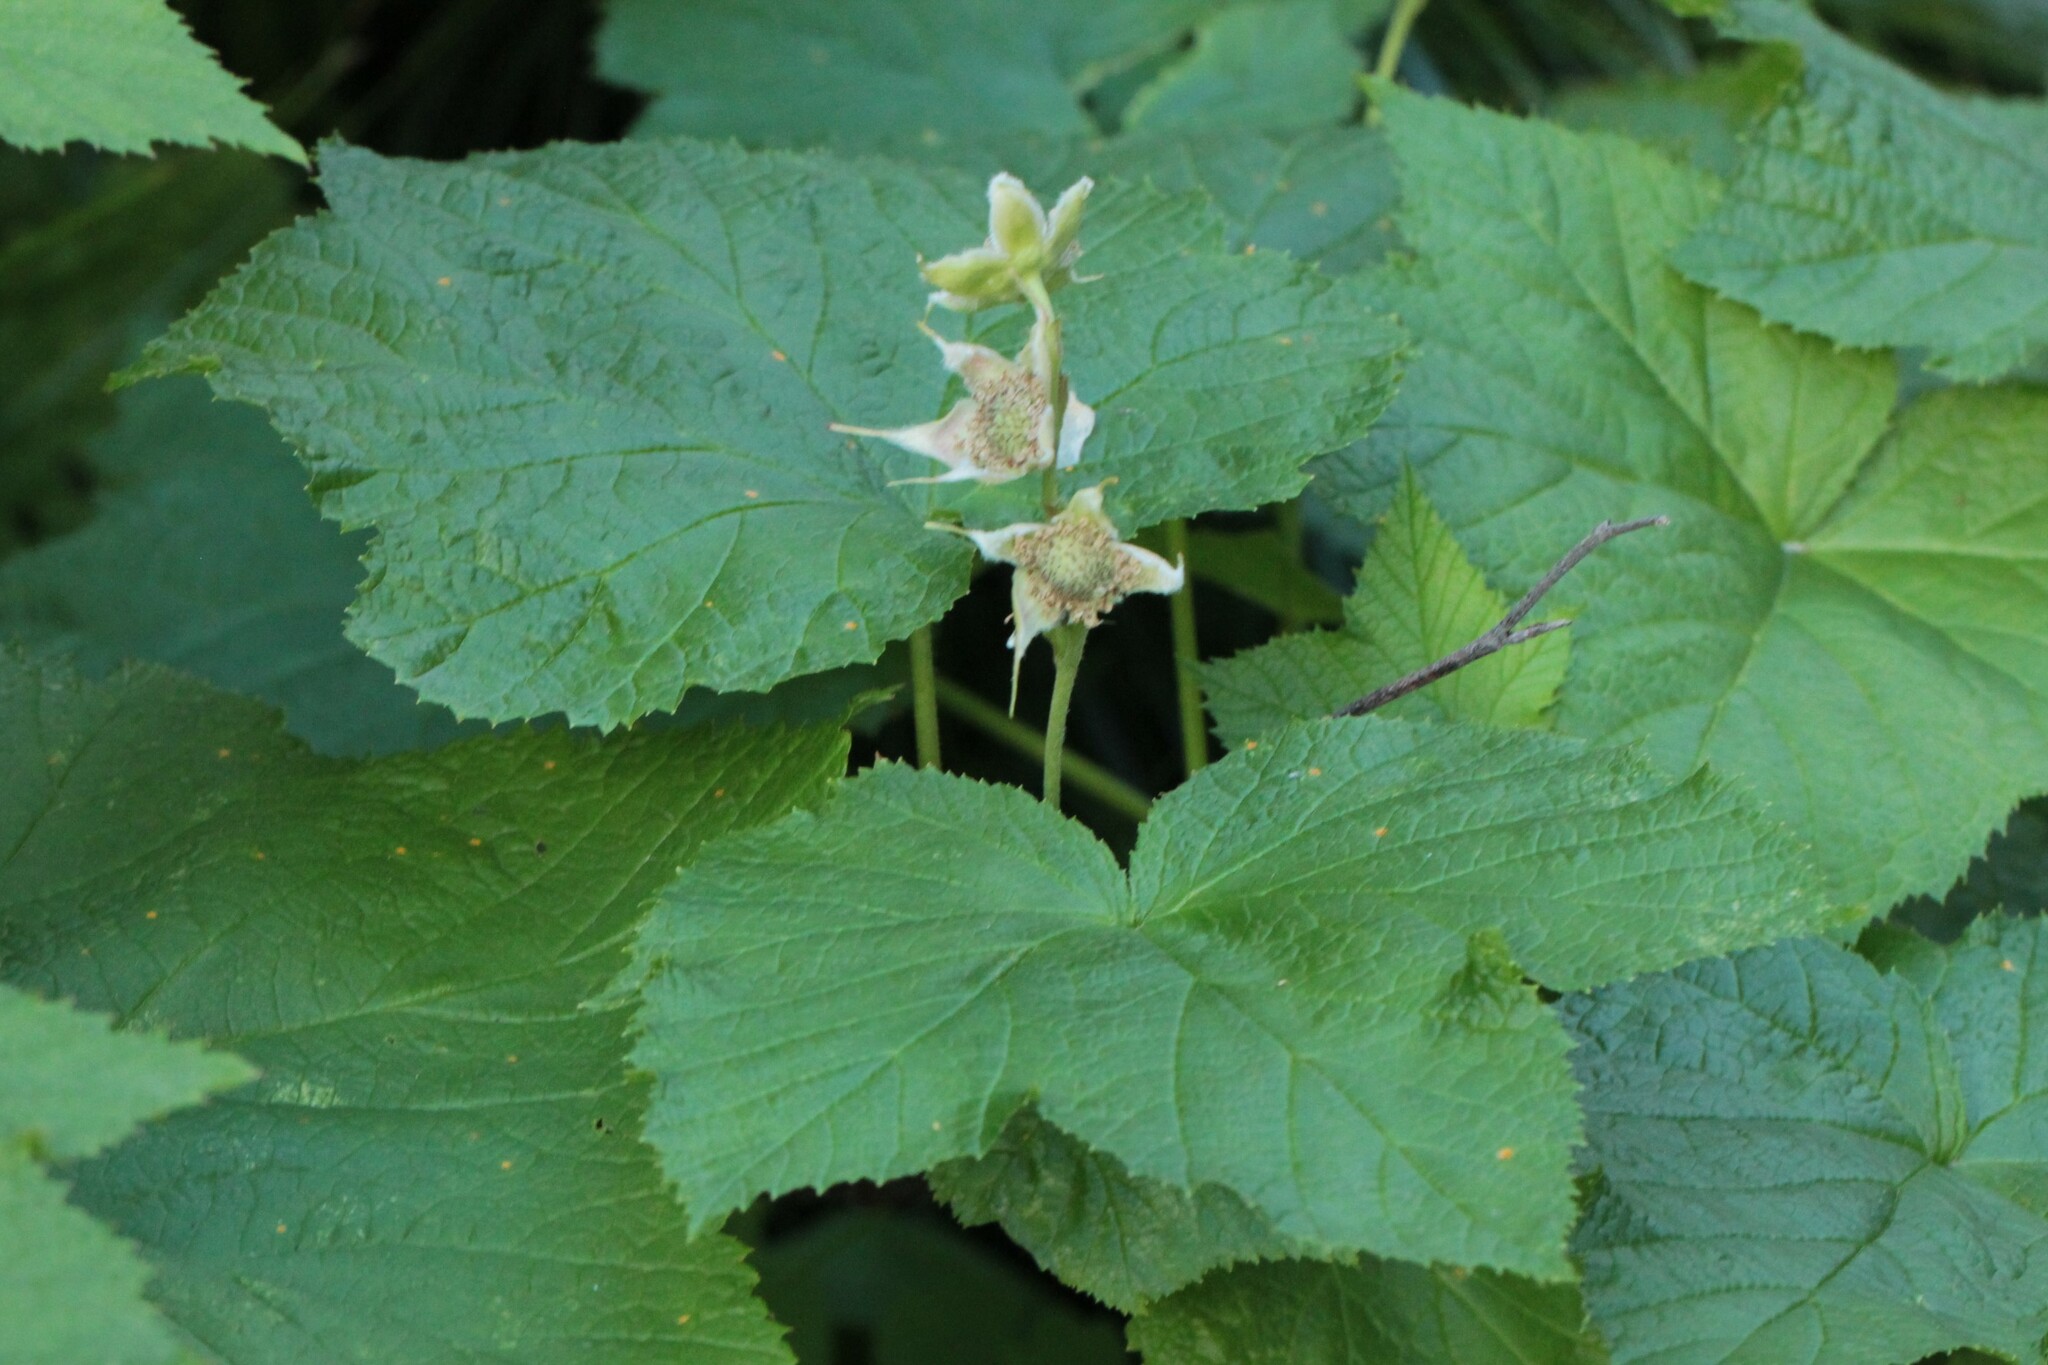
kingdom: Plantae
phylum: Tracheophyta
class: Magnoliopsida
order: Rosales
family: Rosaceae
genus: Rubus
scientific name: Rubus parviflorus
